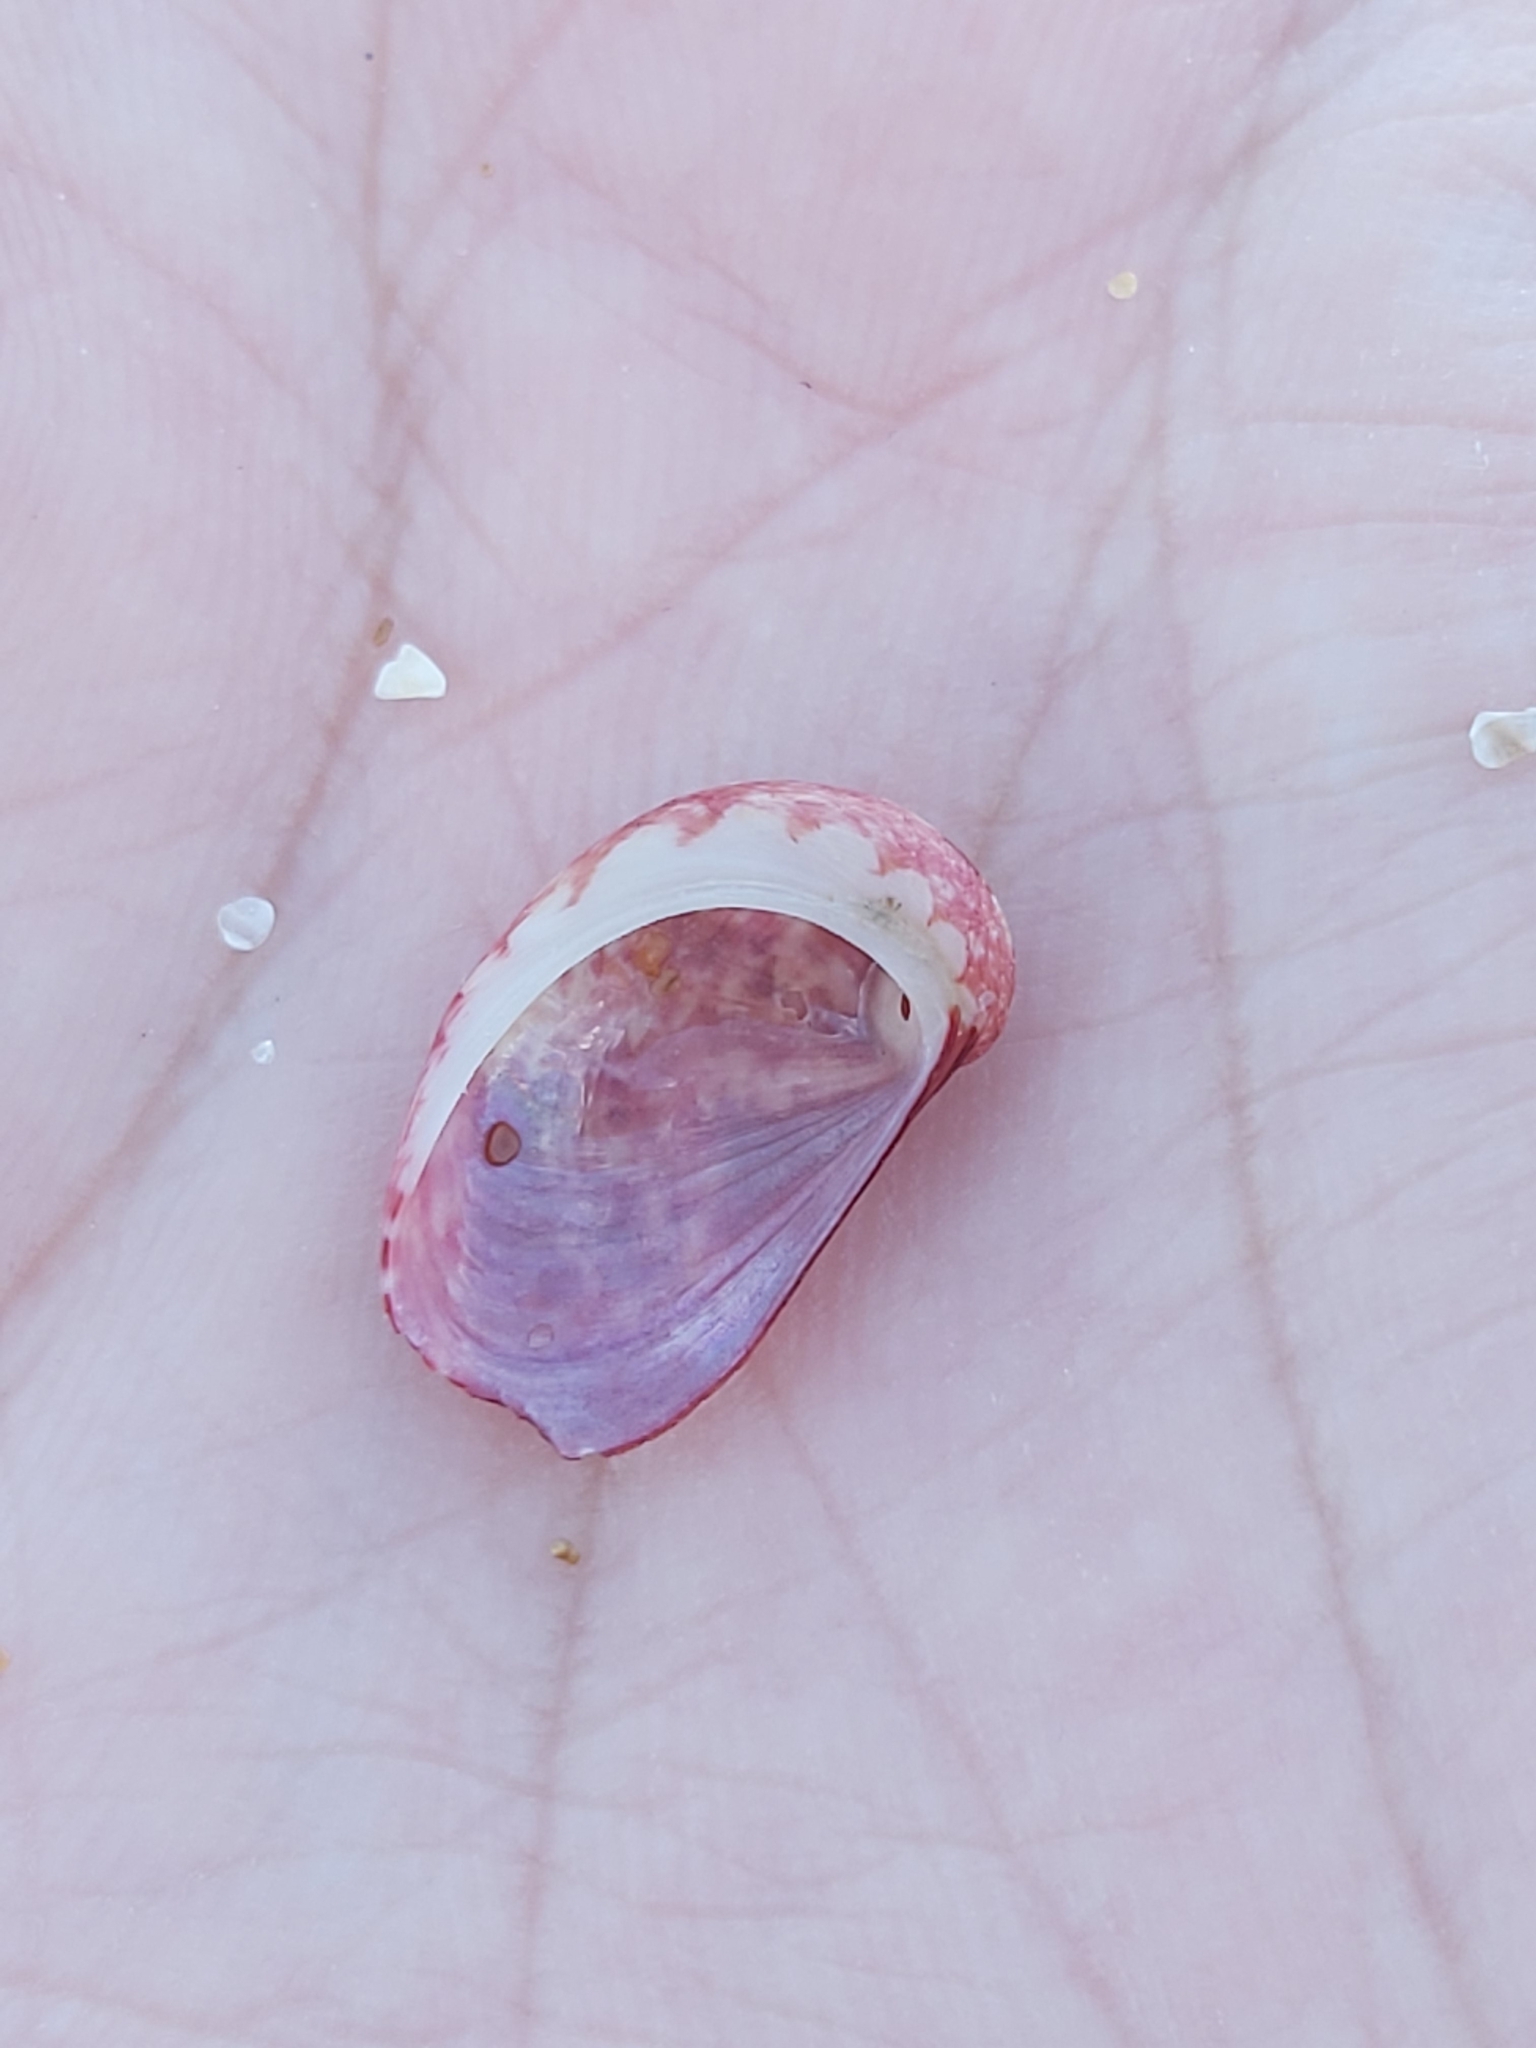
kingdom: Animalia
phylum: Mollusca
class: Gastropoda
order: Trochida
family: Trochidae
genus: Stomatella
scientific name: Stomatella impertusa
